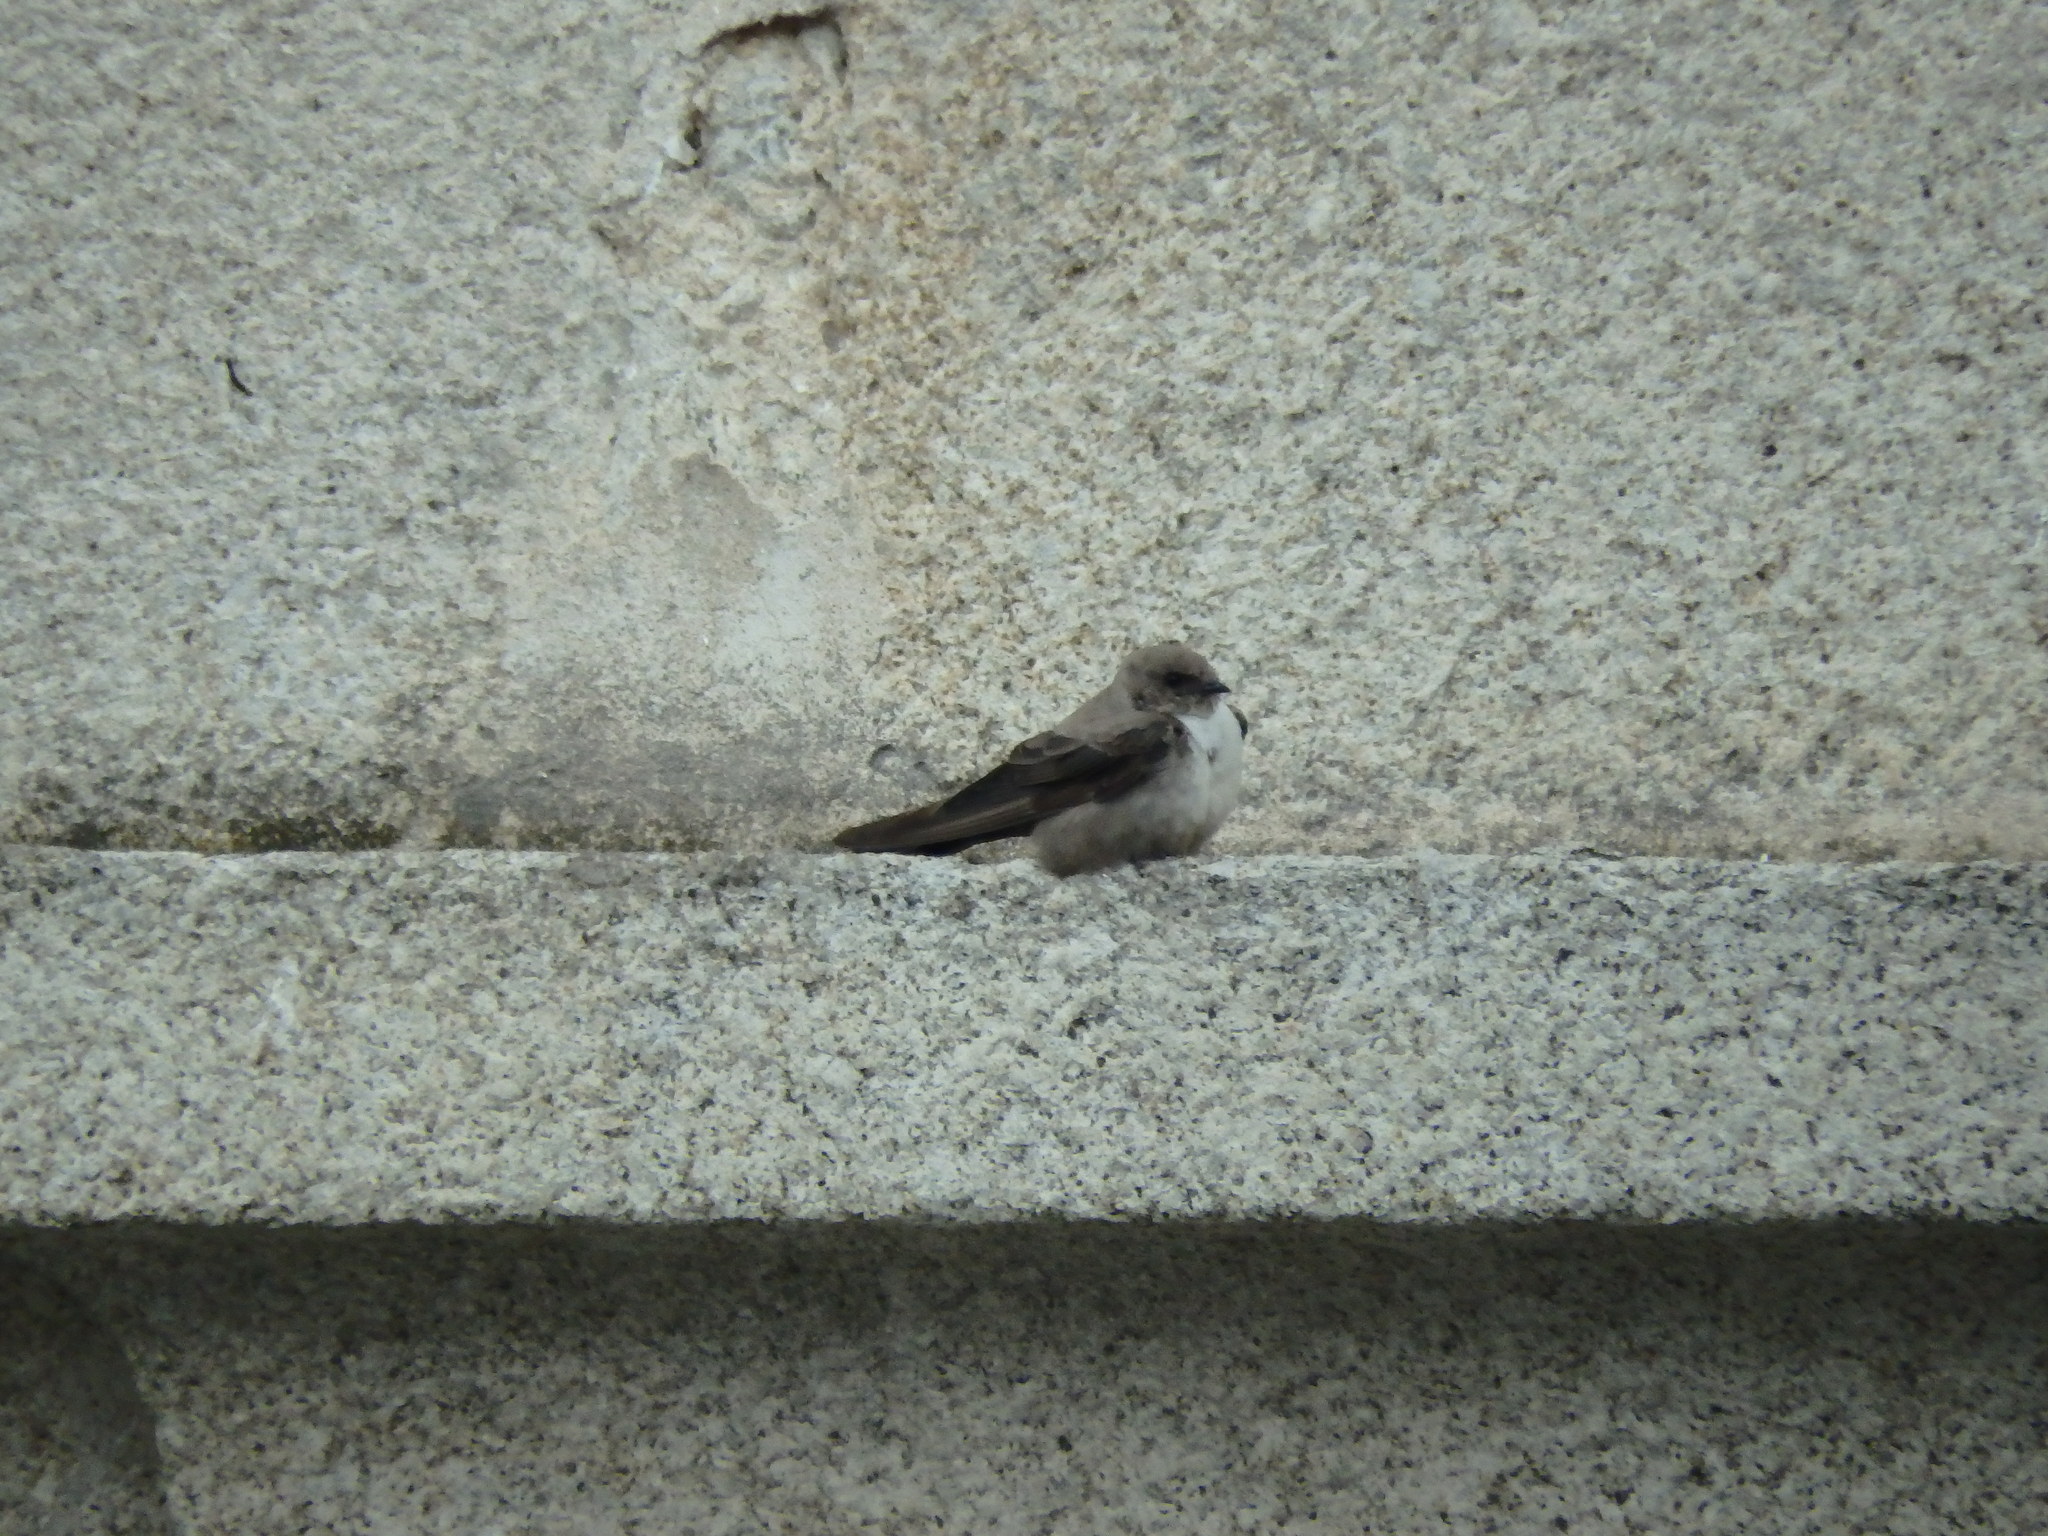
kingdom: Animalia
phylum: Chordata
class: Aves
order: Passeriformes
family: Hirundinidae
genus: Ptyonoprogne
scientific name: Ptyonoprogne rupestris
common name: Eurasian crag martin
